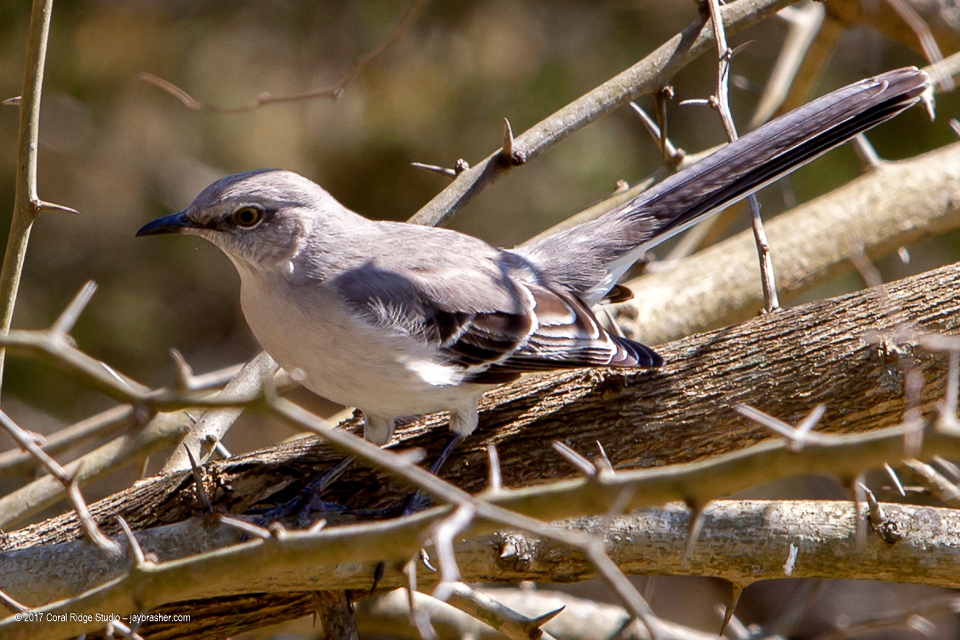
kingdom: Animalia
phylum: Chordata
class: Aves
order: Passeriformes
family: Mimidae
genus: Mimus
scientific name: Mimus polyglottos
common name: Northern mockingbird
